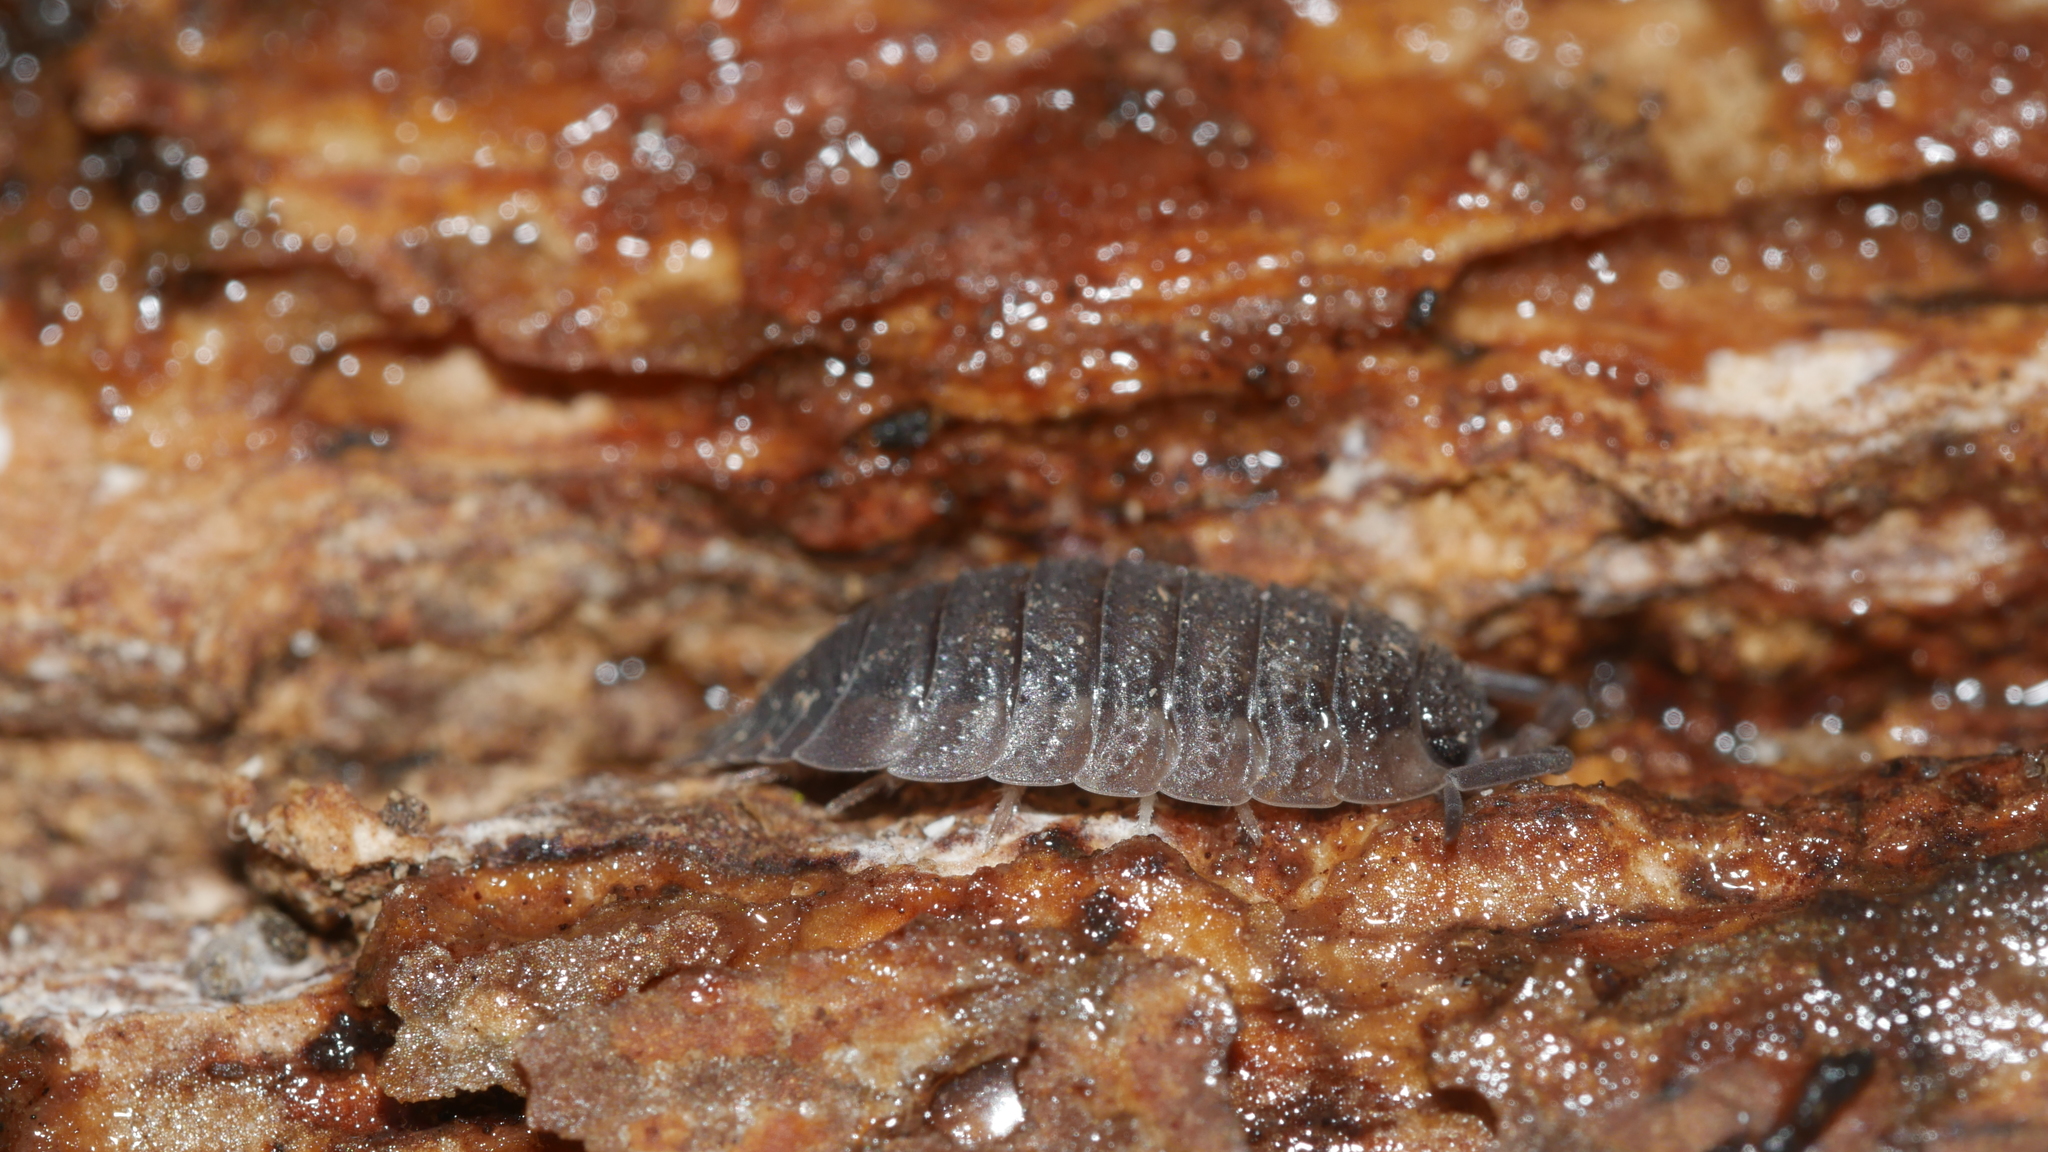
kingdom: Animalia
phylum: Arthropoda
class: Malacostraca
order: Isopoda
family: Porcellionidae
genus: Porcellio
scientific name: Porcellio scaber
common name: Common rough woodlouse
